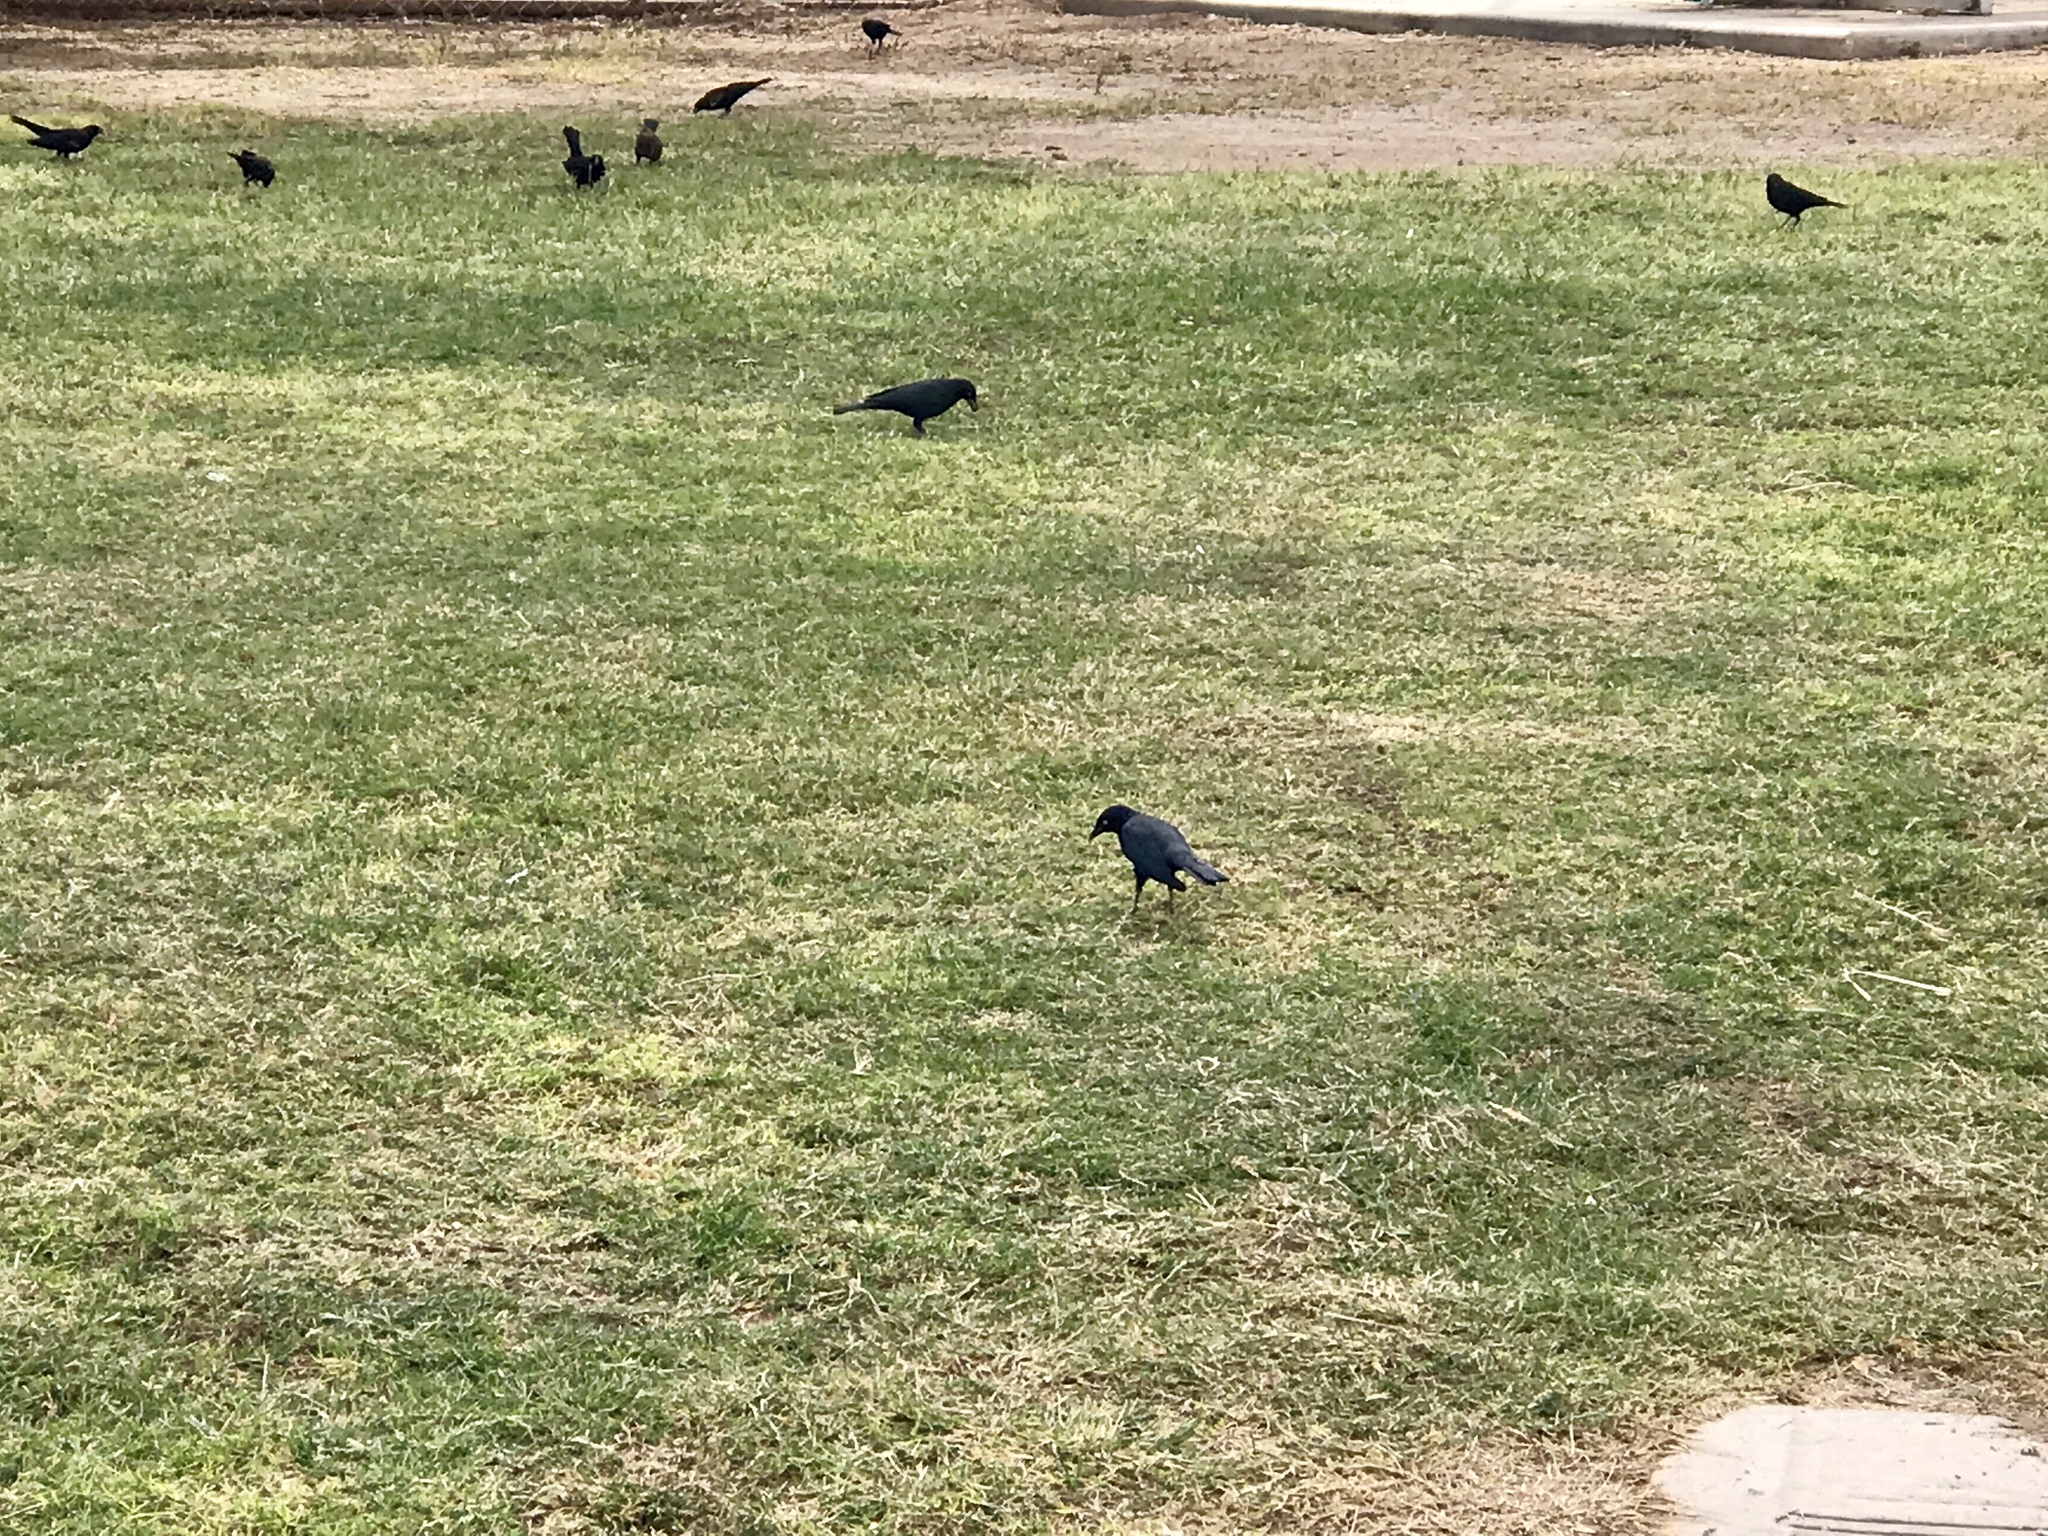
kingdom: Animalia
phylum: Chordata
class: Aves
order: Passeriformes
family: Icteridae
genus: Euphagus
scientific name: Euphagus cyanocephalus
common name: Brewer's blackbird
